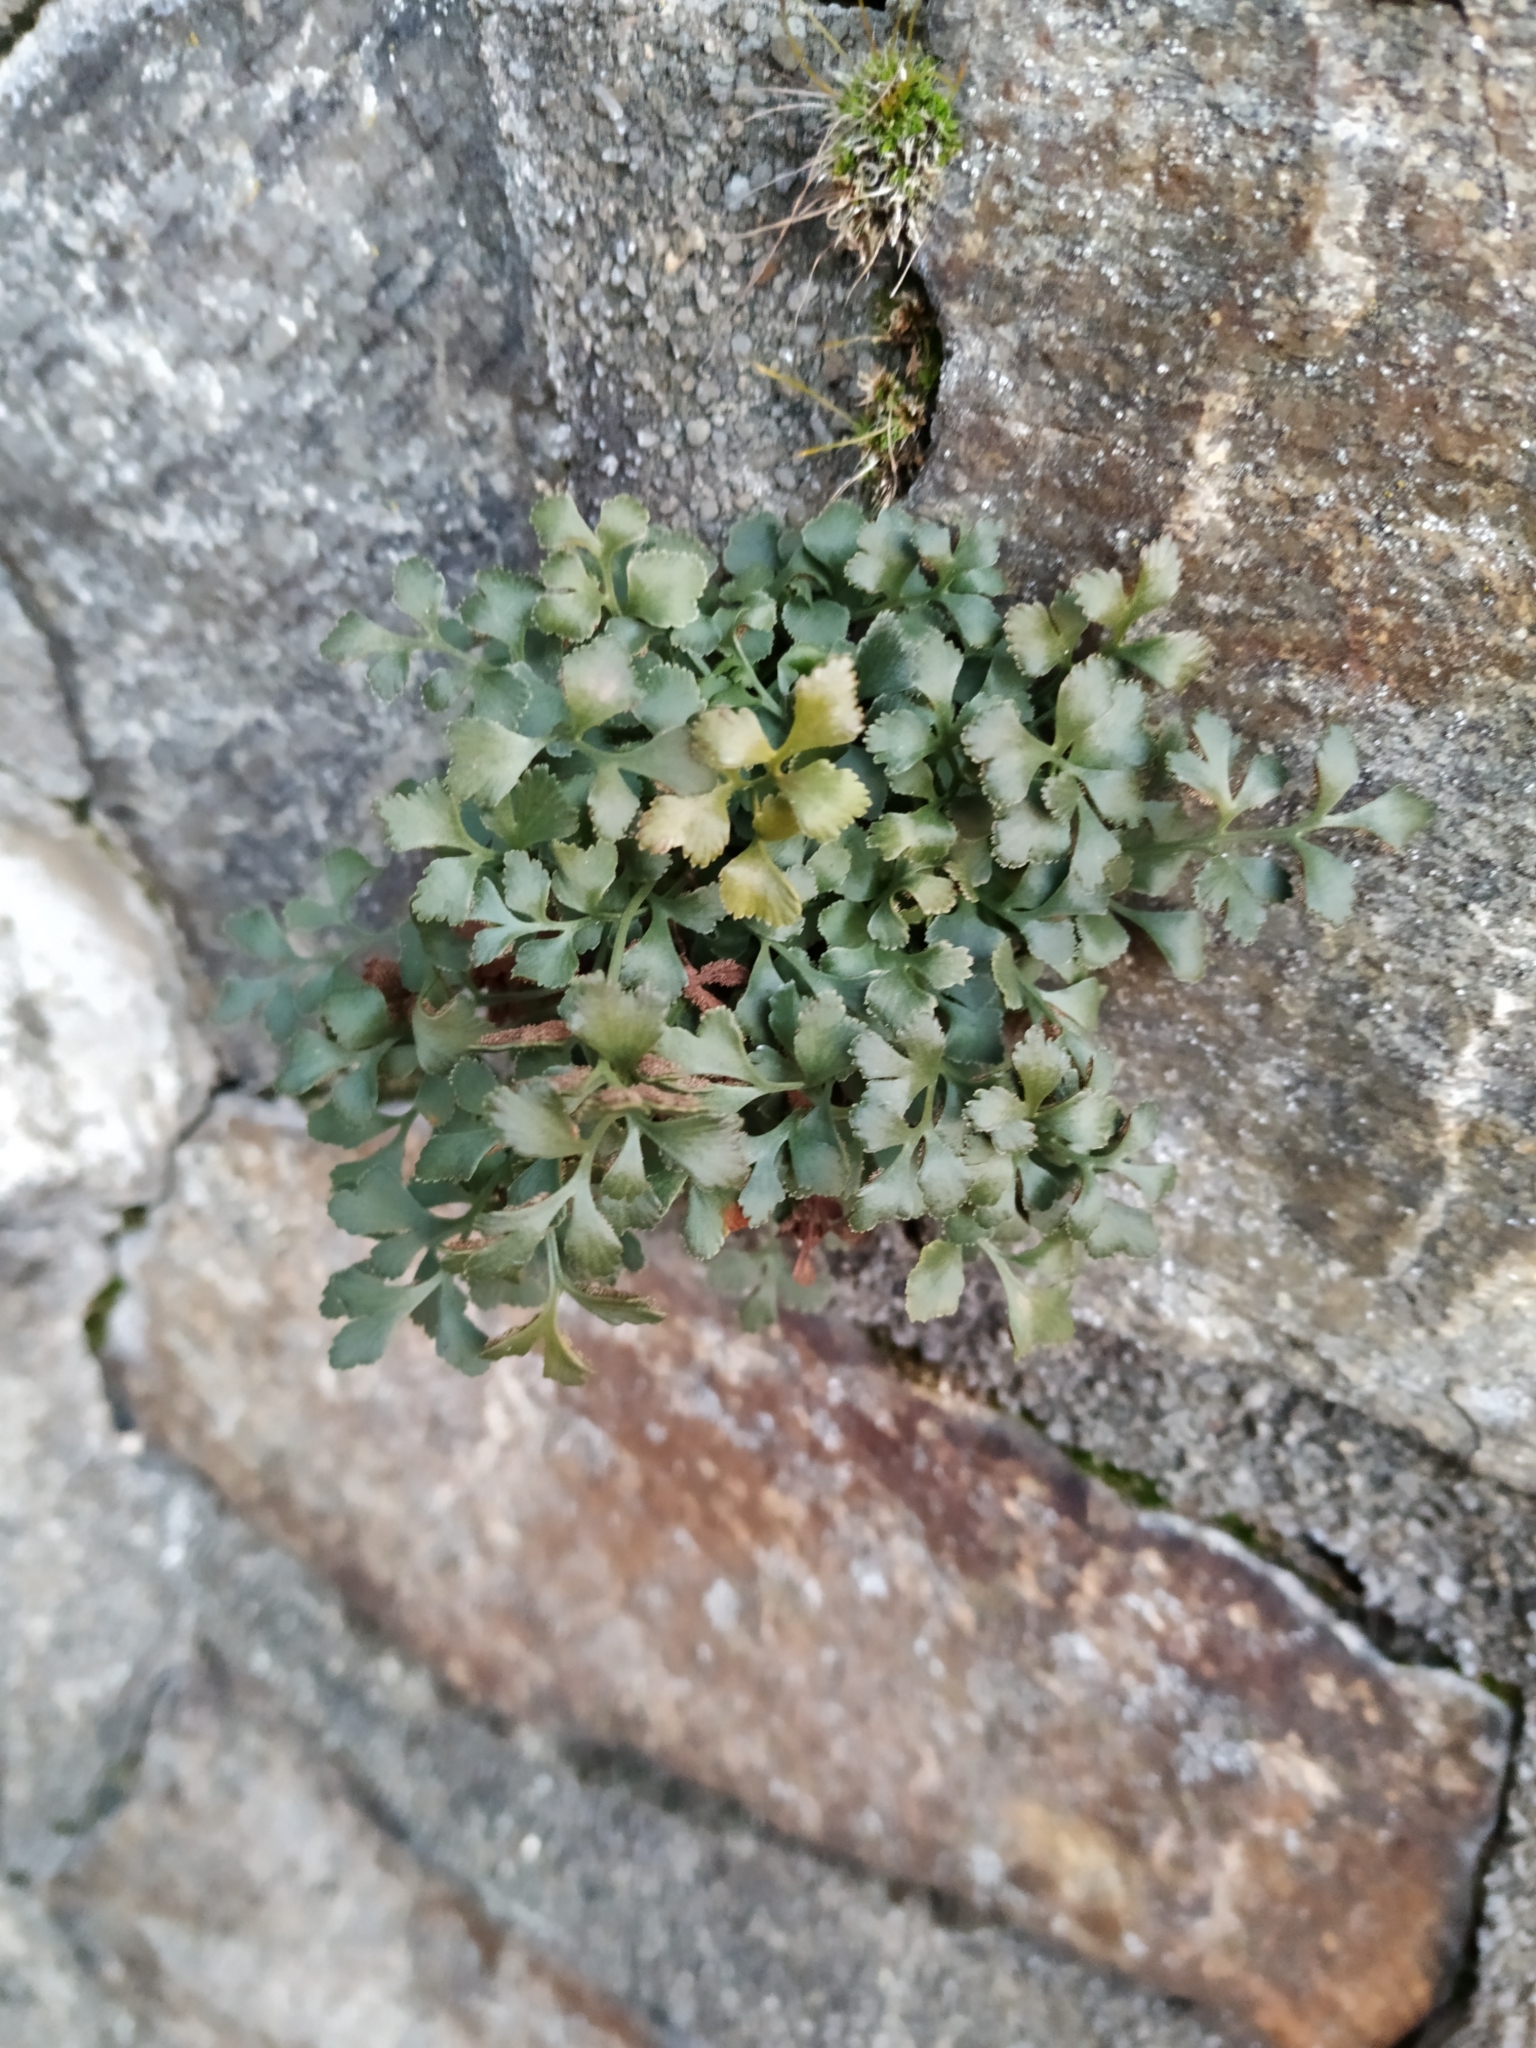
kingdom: Plantae
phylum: Tracheophyta
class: Polypodiopsida
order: Polypodiales
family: Aspleniaceae
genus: Asplenium
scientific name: Asplenium ruta-muraria
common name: Wall-rue
